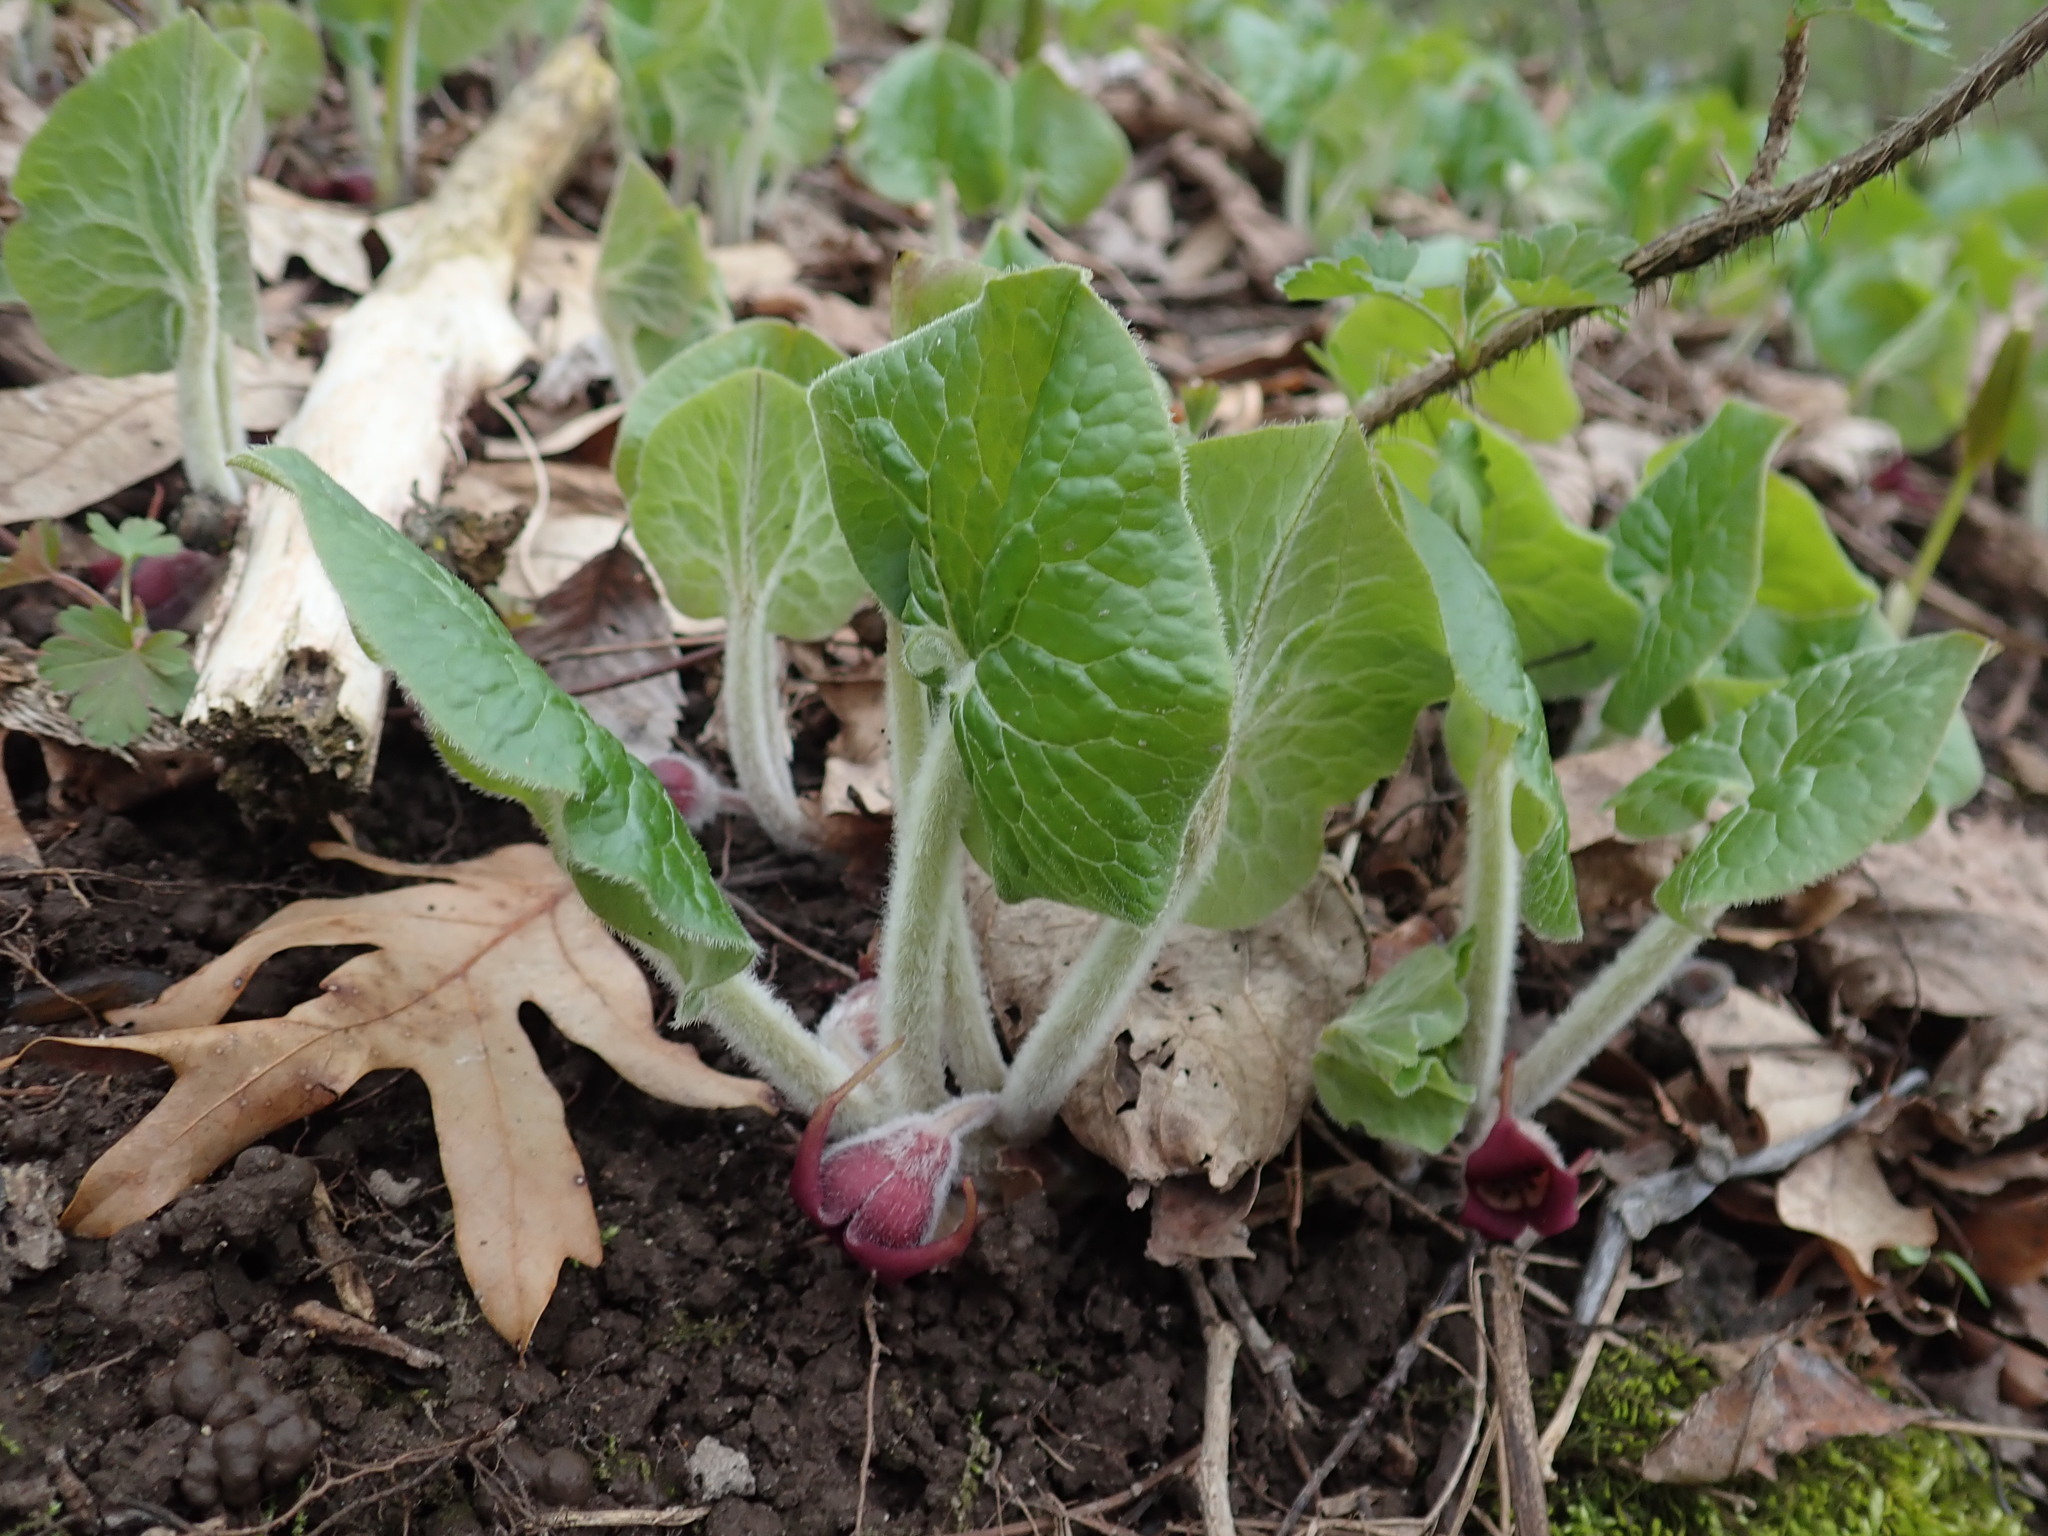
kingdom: Plantae
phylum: Tracheophyta
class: Magnoliopsida
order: Piperales
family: Aristolochiaceae
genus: Asarum
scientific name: Asarum canadense
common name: Wild ginger
